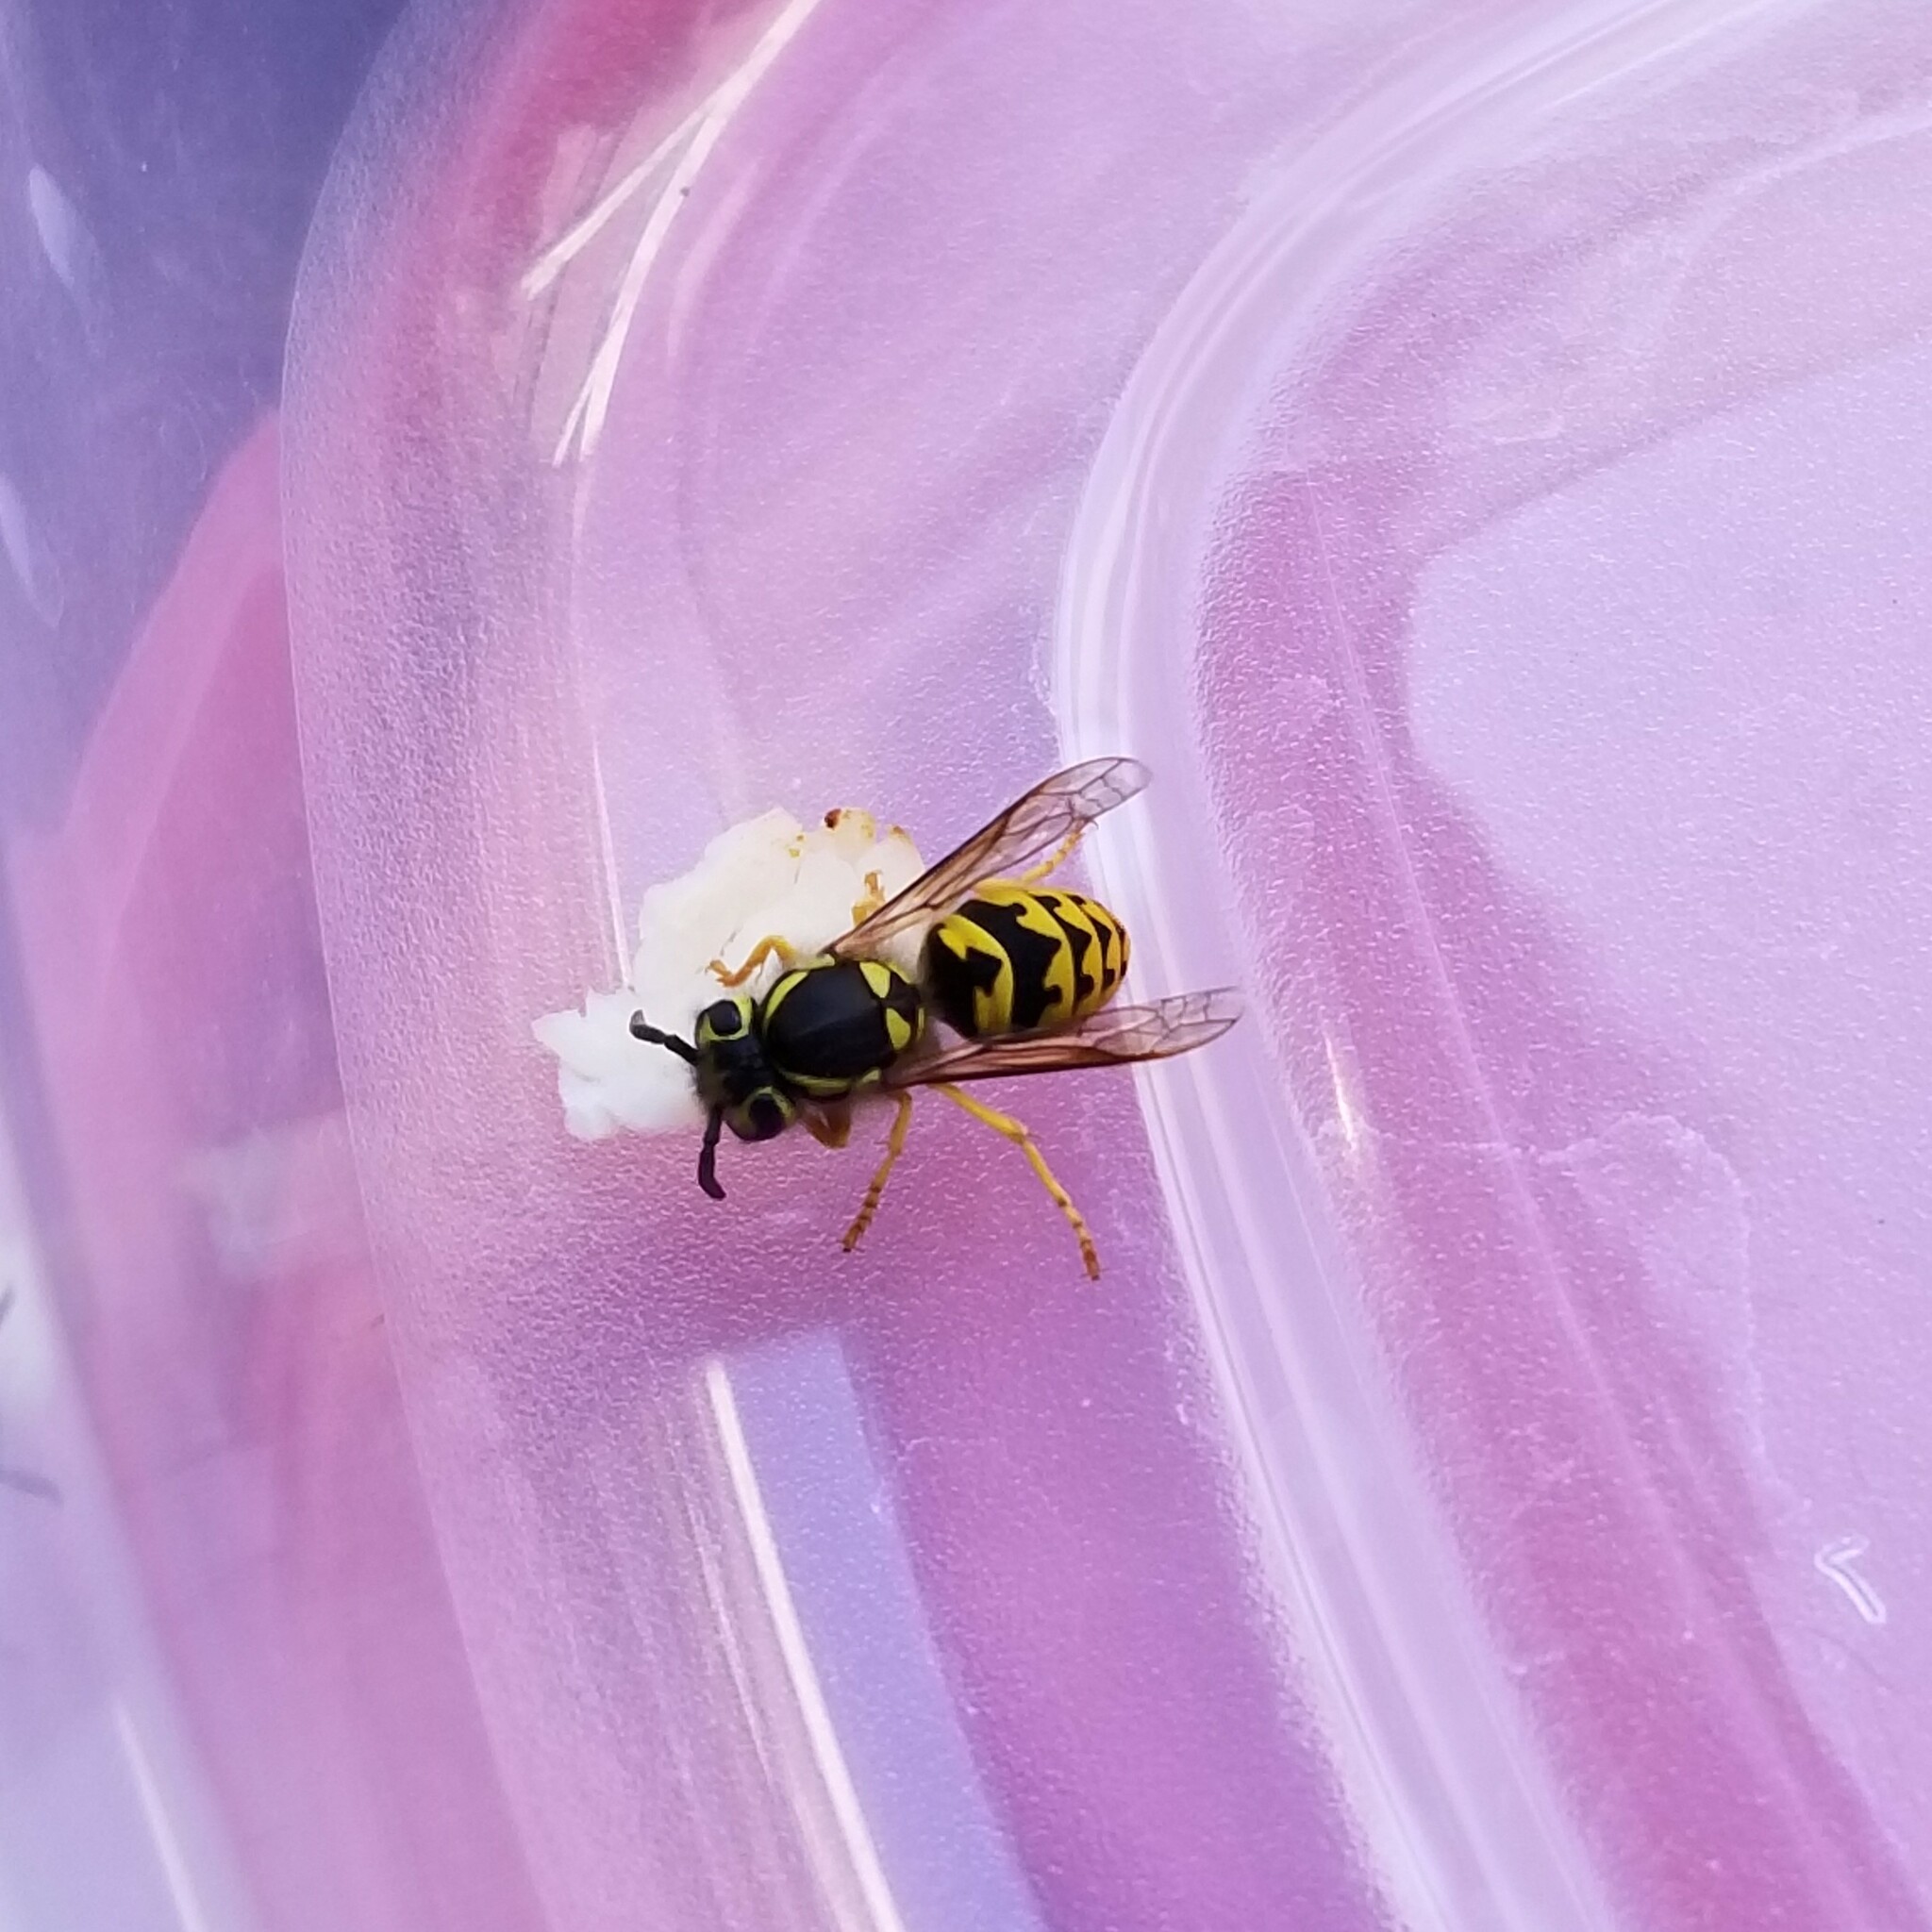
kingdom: Animalia
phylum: Arthropoda
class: Insecta
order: Hymenoptera
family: Vespidae
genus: Vespula
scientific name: Vespula pensylvanica
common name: Western yellowjacket
